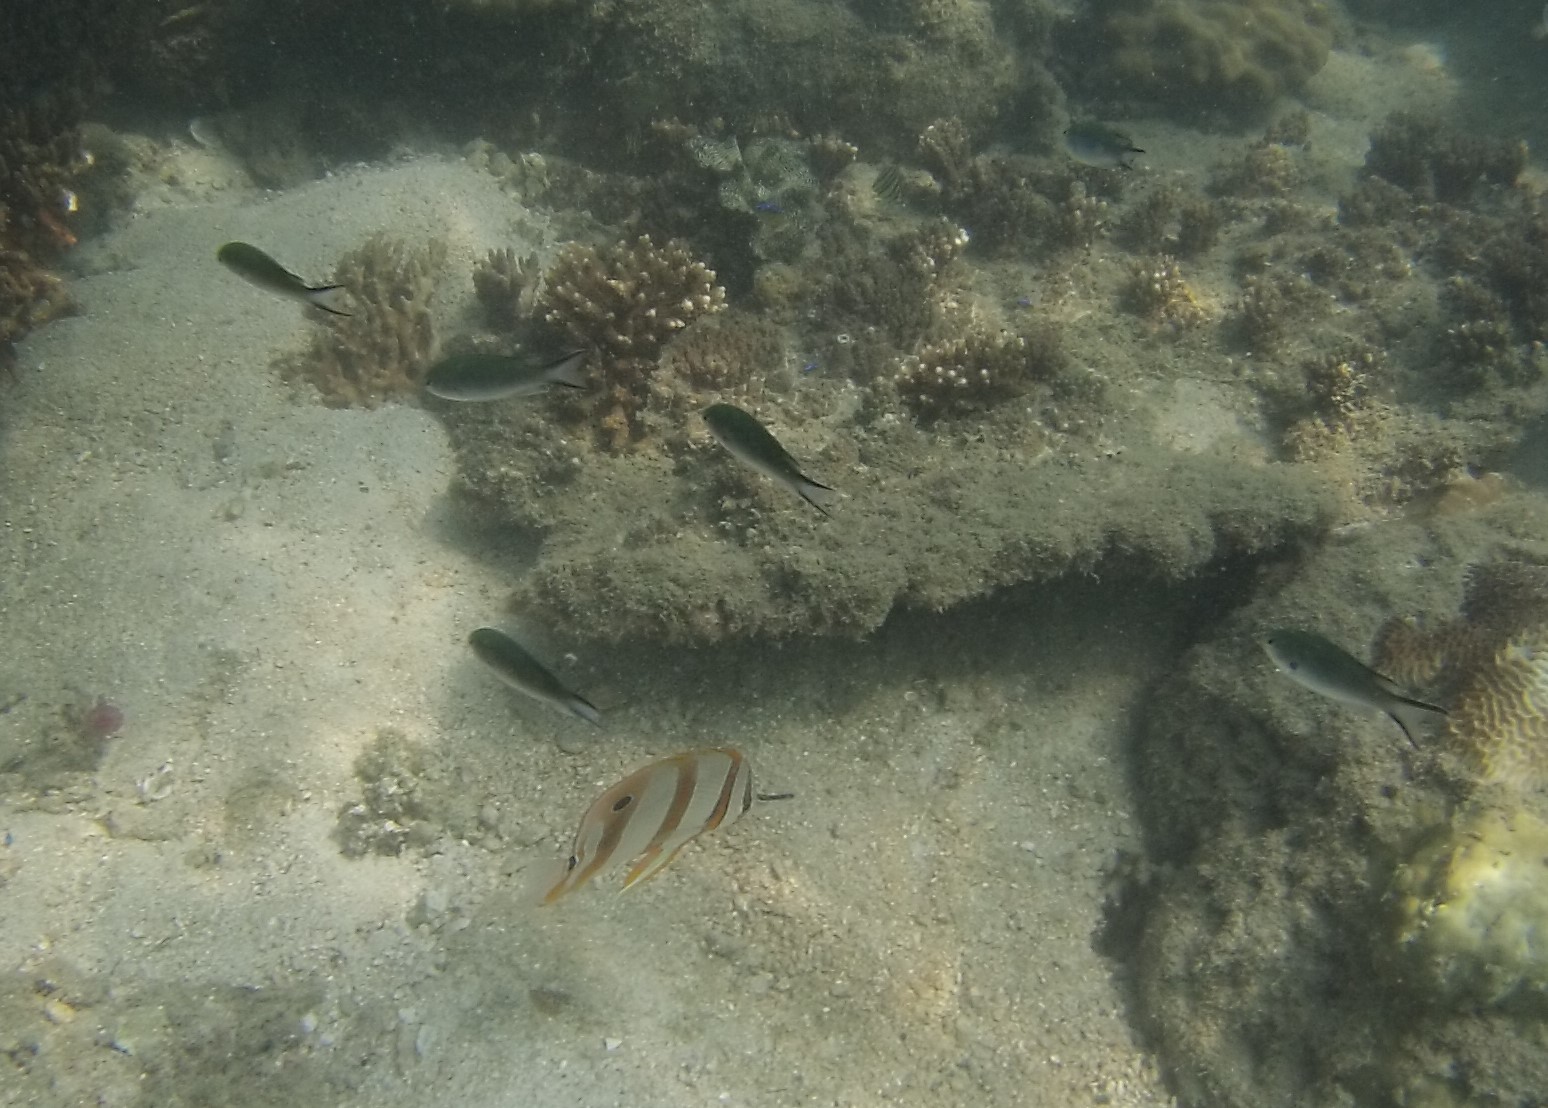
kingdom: Animalia
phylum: Chordata
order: Perciformes
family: Chaetodontidae
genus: Chelmon
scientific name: Chelmon rostratus
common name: Beaked butterflyfish
